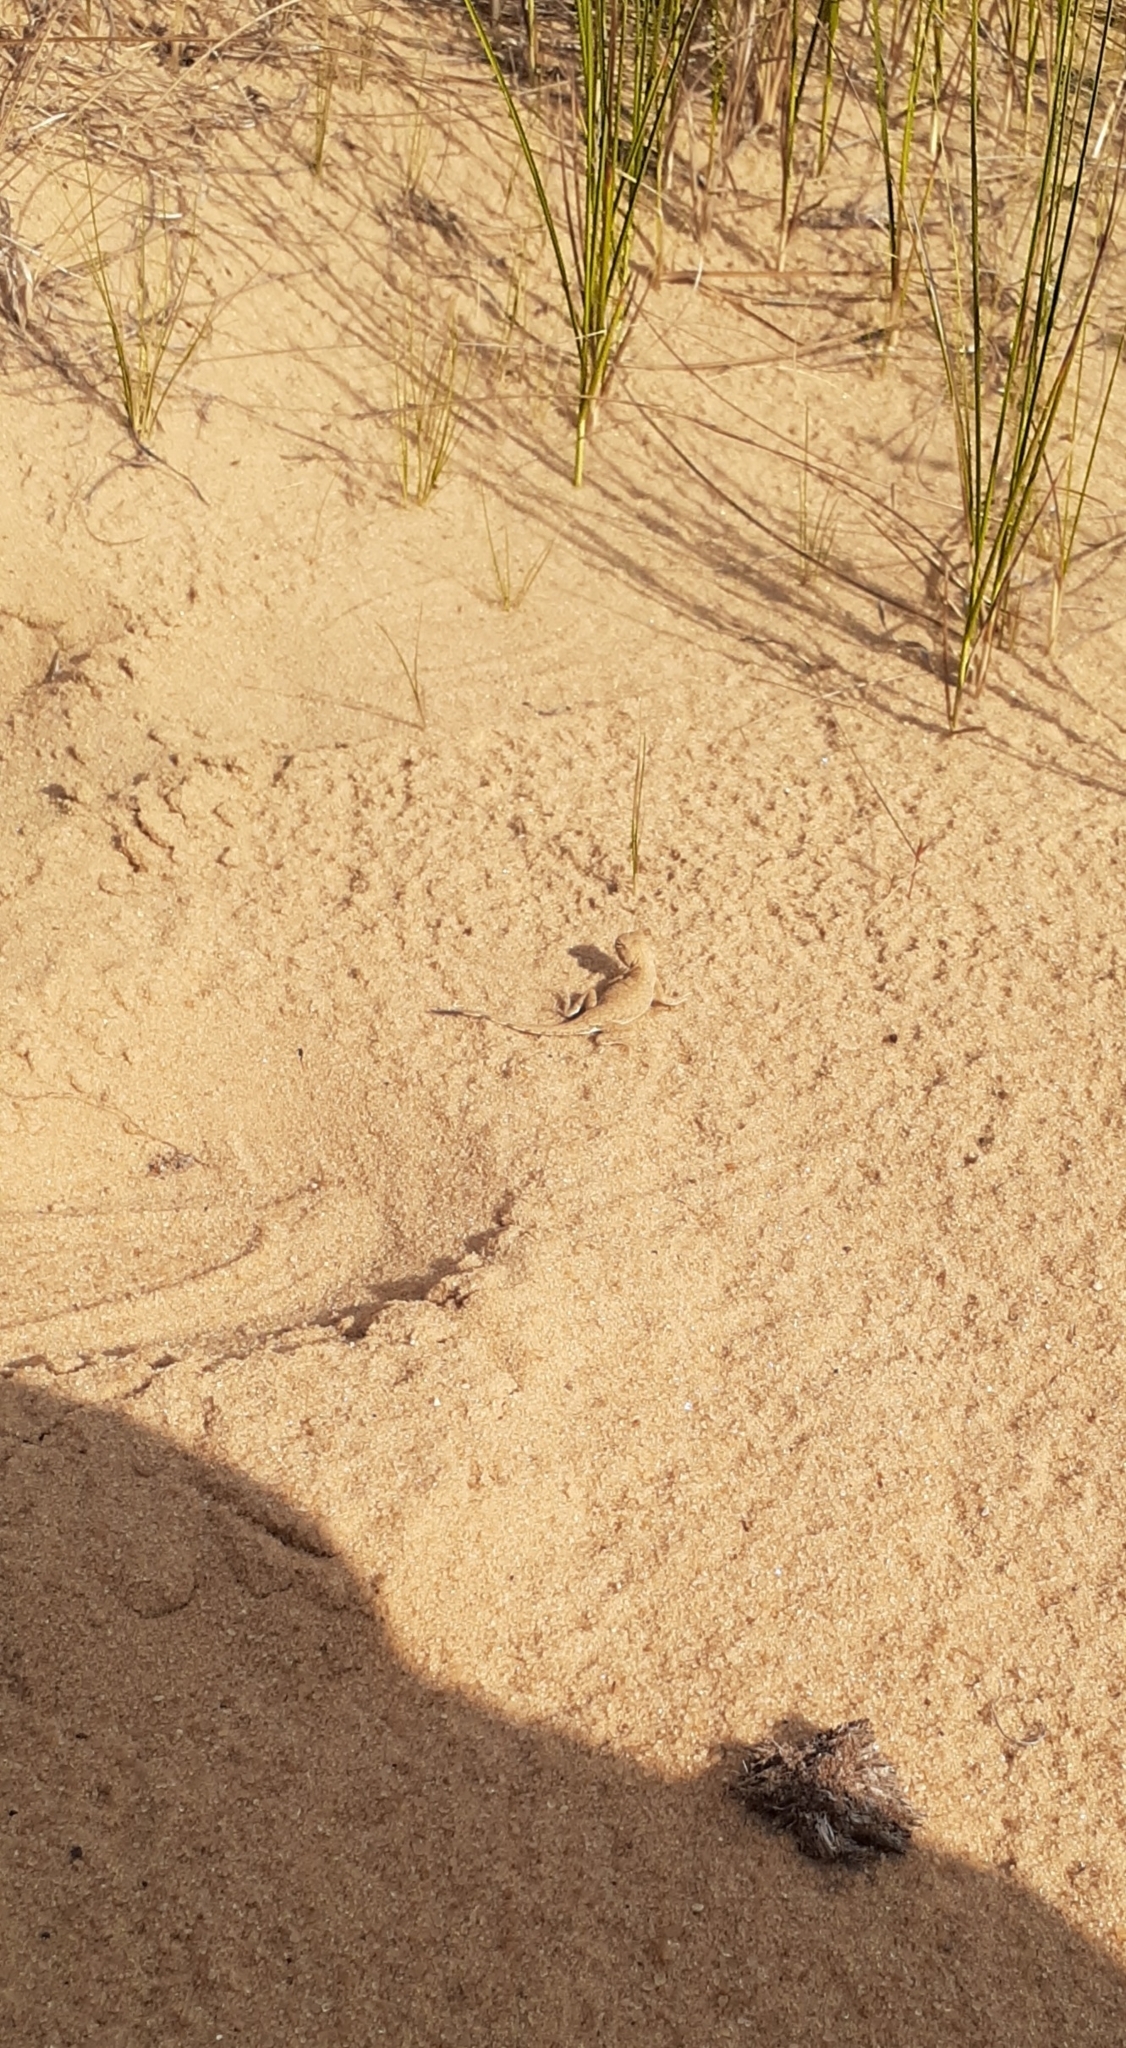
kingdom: Animalia
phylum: Chordata
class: Squamata
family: Agamidae
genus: Phrynocephalus
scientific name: Phrynocephalus guttatus
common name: Spotted toadhead agama
